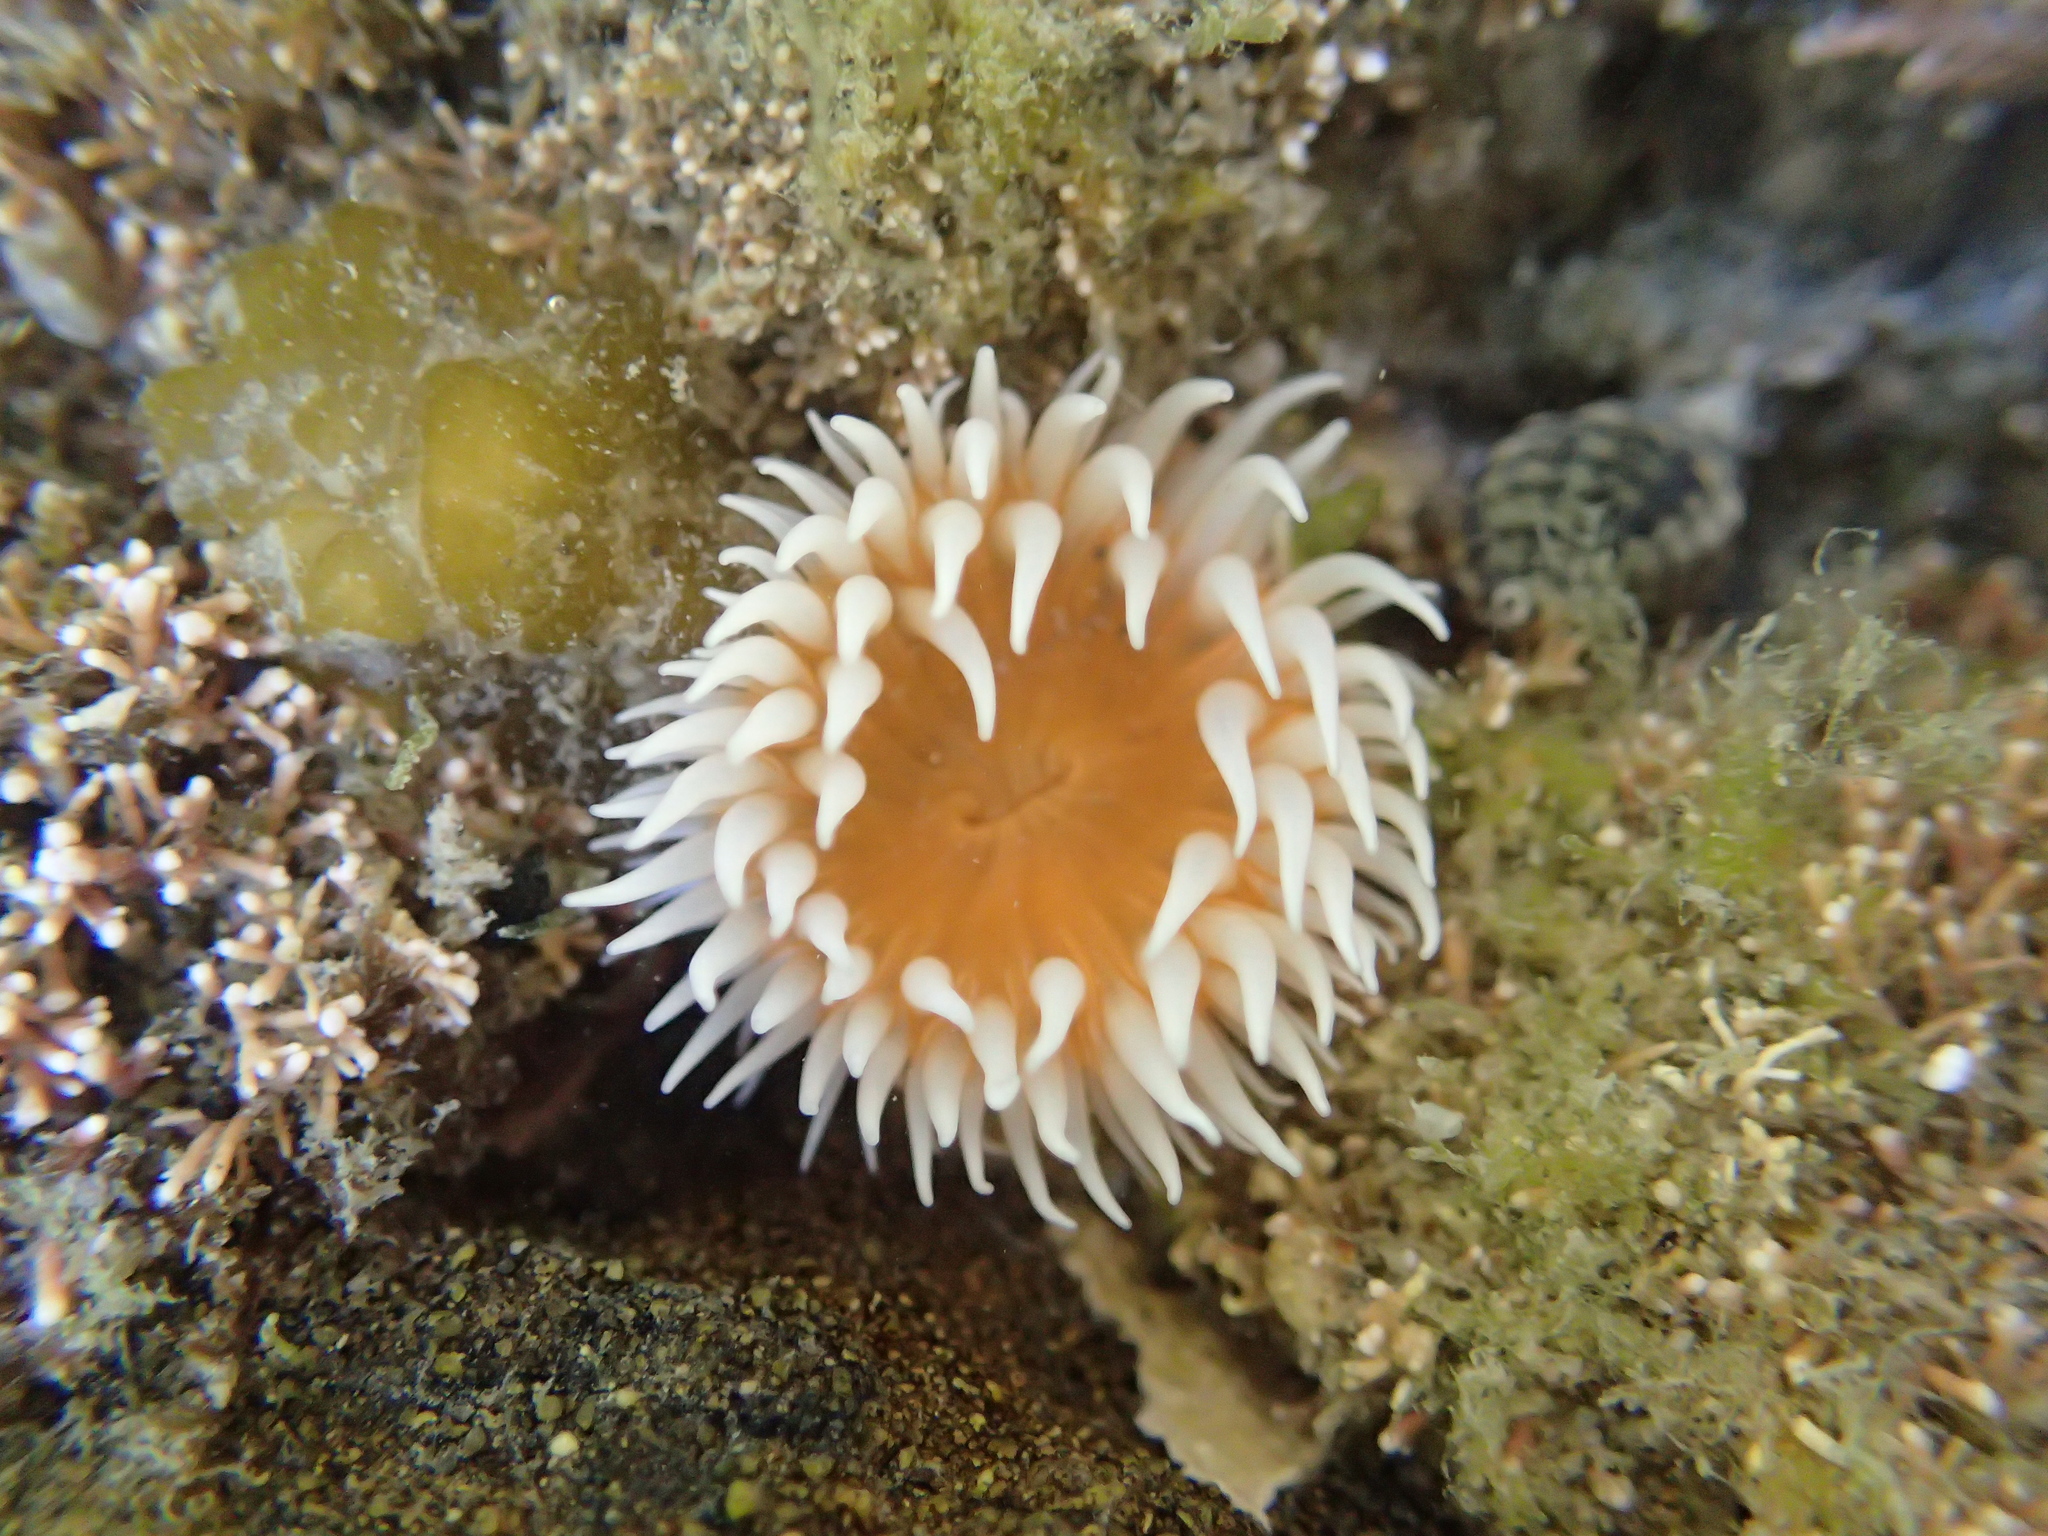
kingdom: Animalia
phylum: Cnidaria
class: Anthozoa
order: Actiniaria
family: Sagartiidae
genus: Anthothoe
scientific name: Anthothoe albocincta
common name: Orange striped anemone
